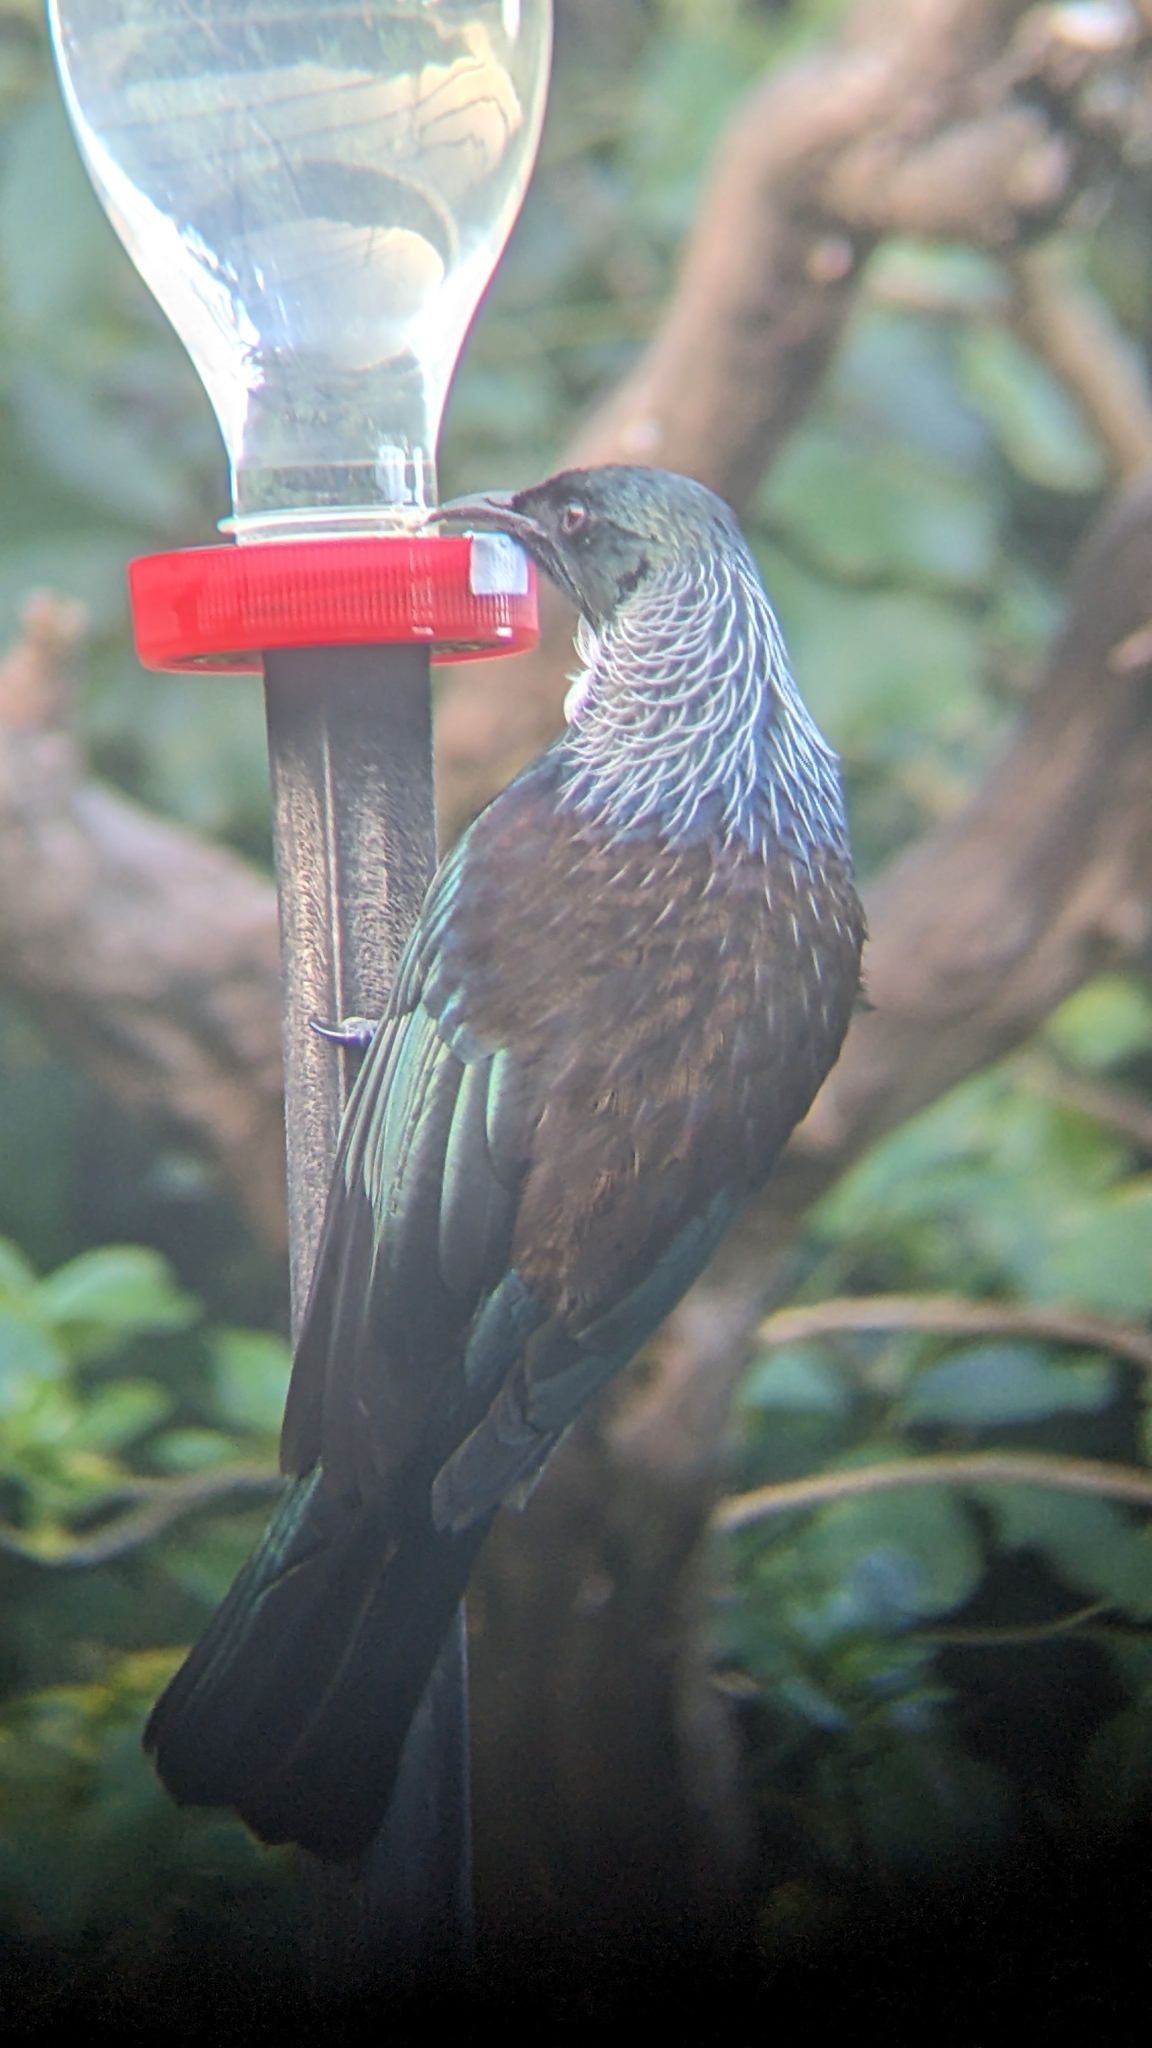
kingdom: Animalia
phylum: Chordata
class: Aves
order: Passeriformes
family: Meliphagidae
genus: Prosthemadera
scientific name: Prosthemadera novaeseelandiae
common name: Tui
